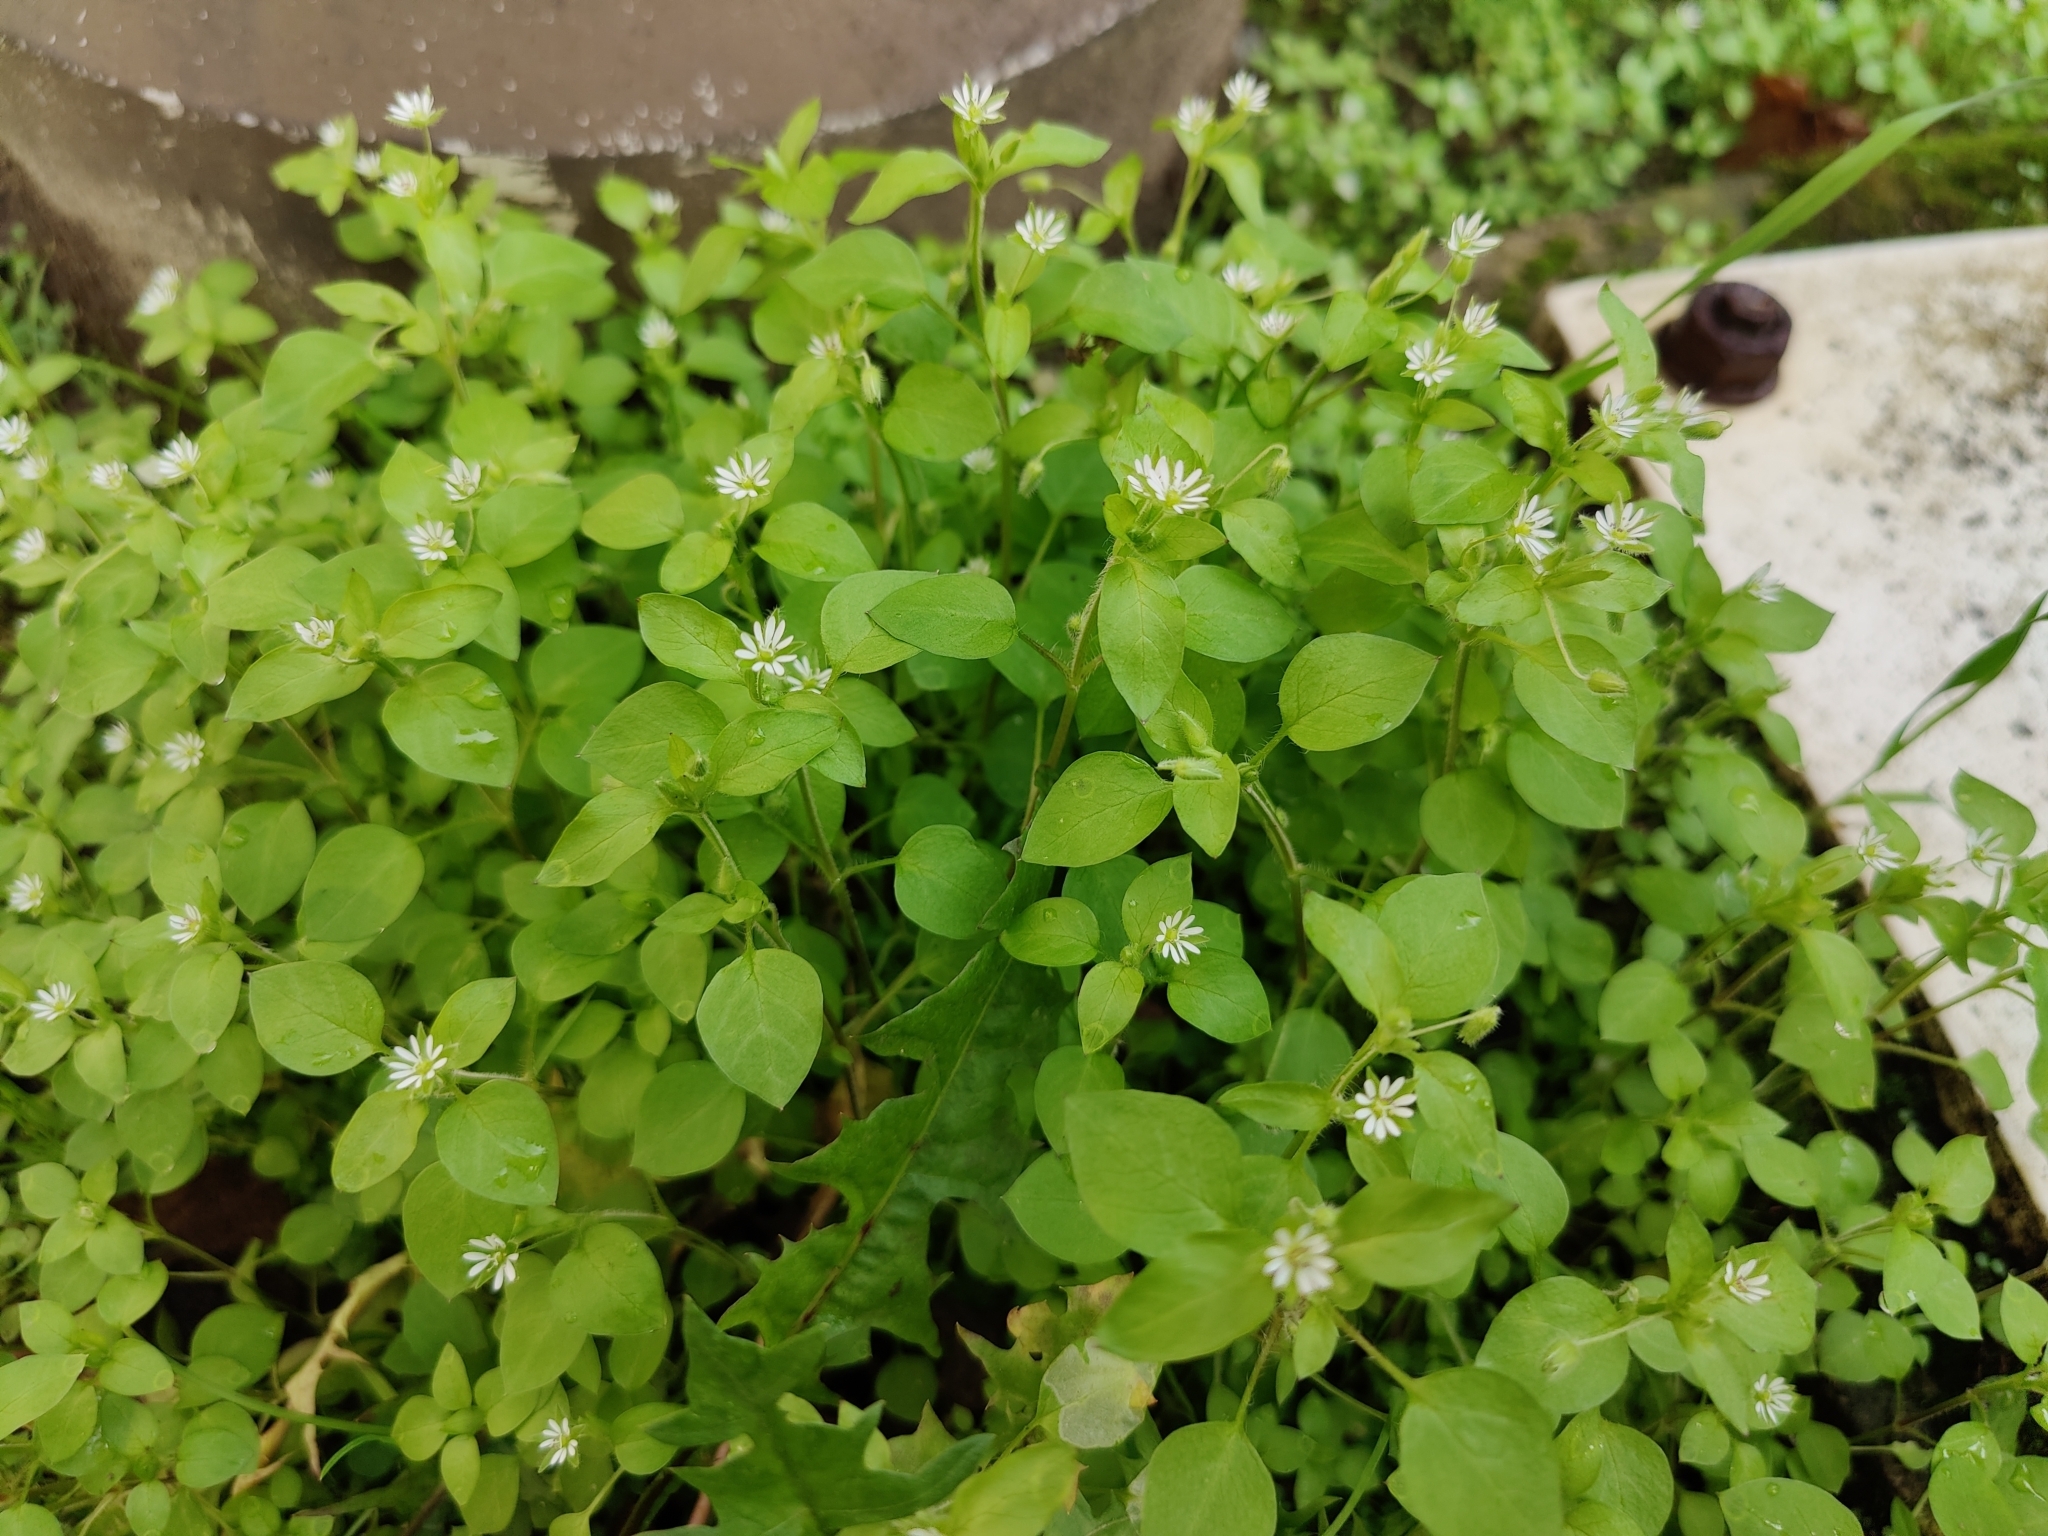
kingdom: Plantae
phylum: Tracheophyta
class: Magnoliopsida
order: Caryophyllales
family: Caryophyllaceae
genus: Stellaria
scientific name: Stellaria media
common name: Common chickweed
